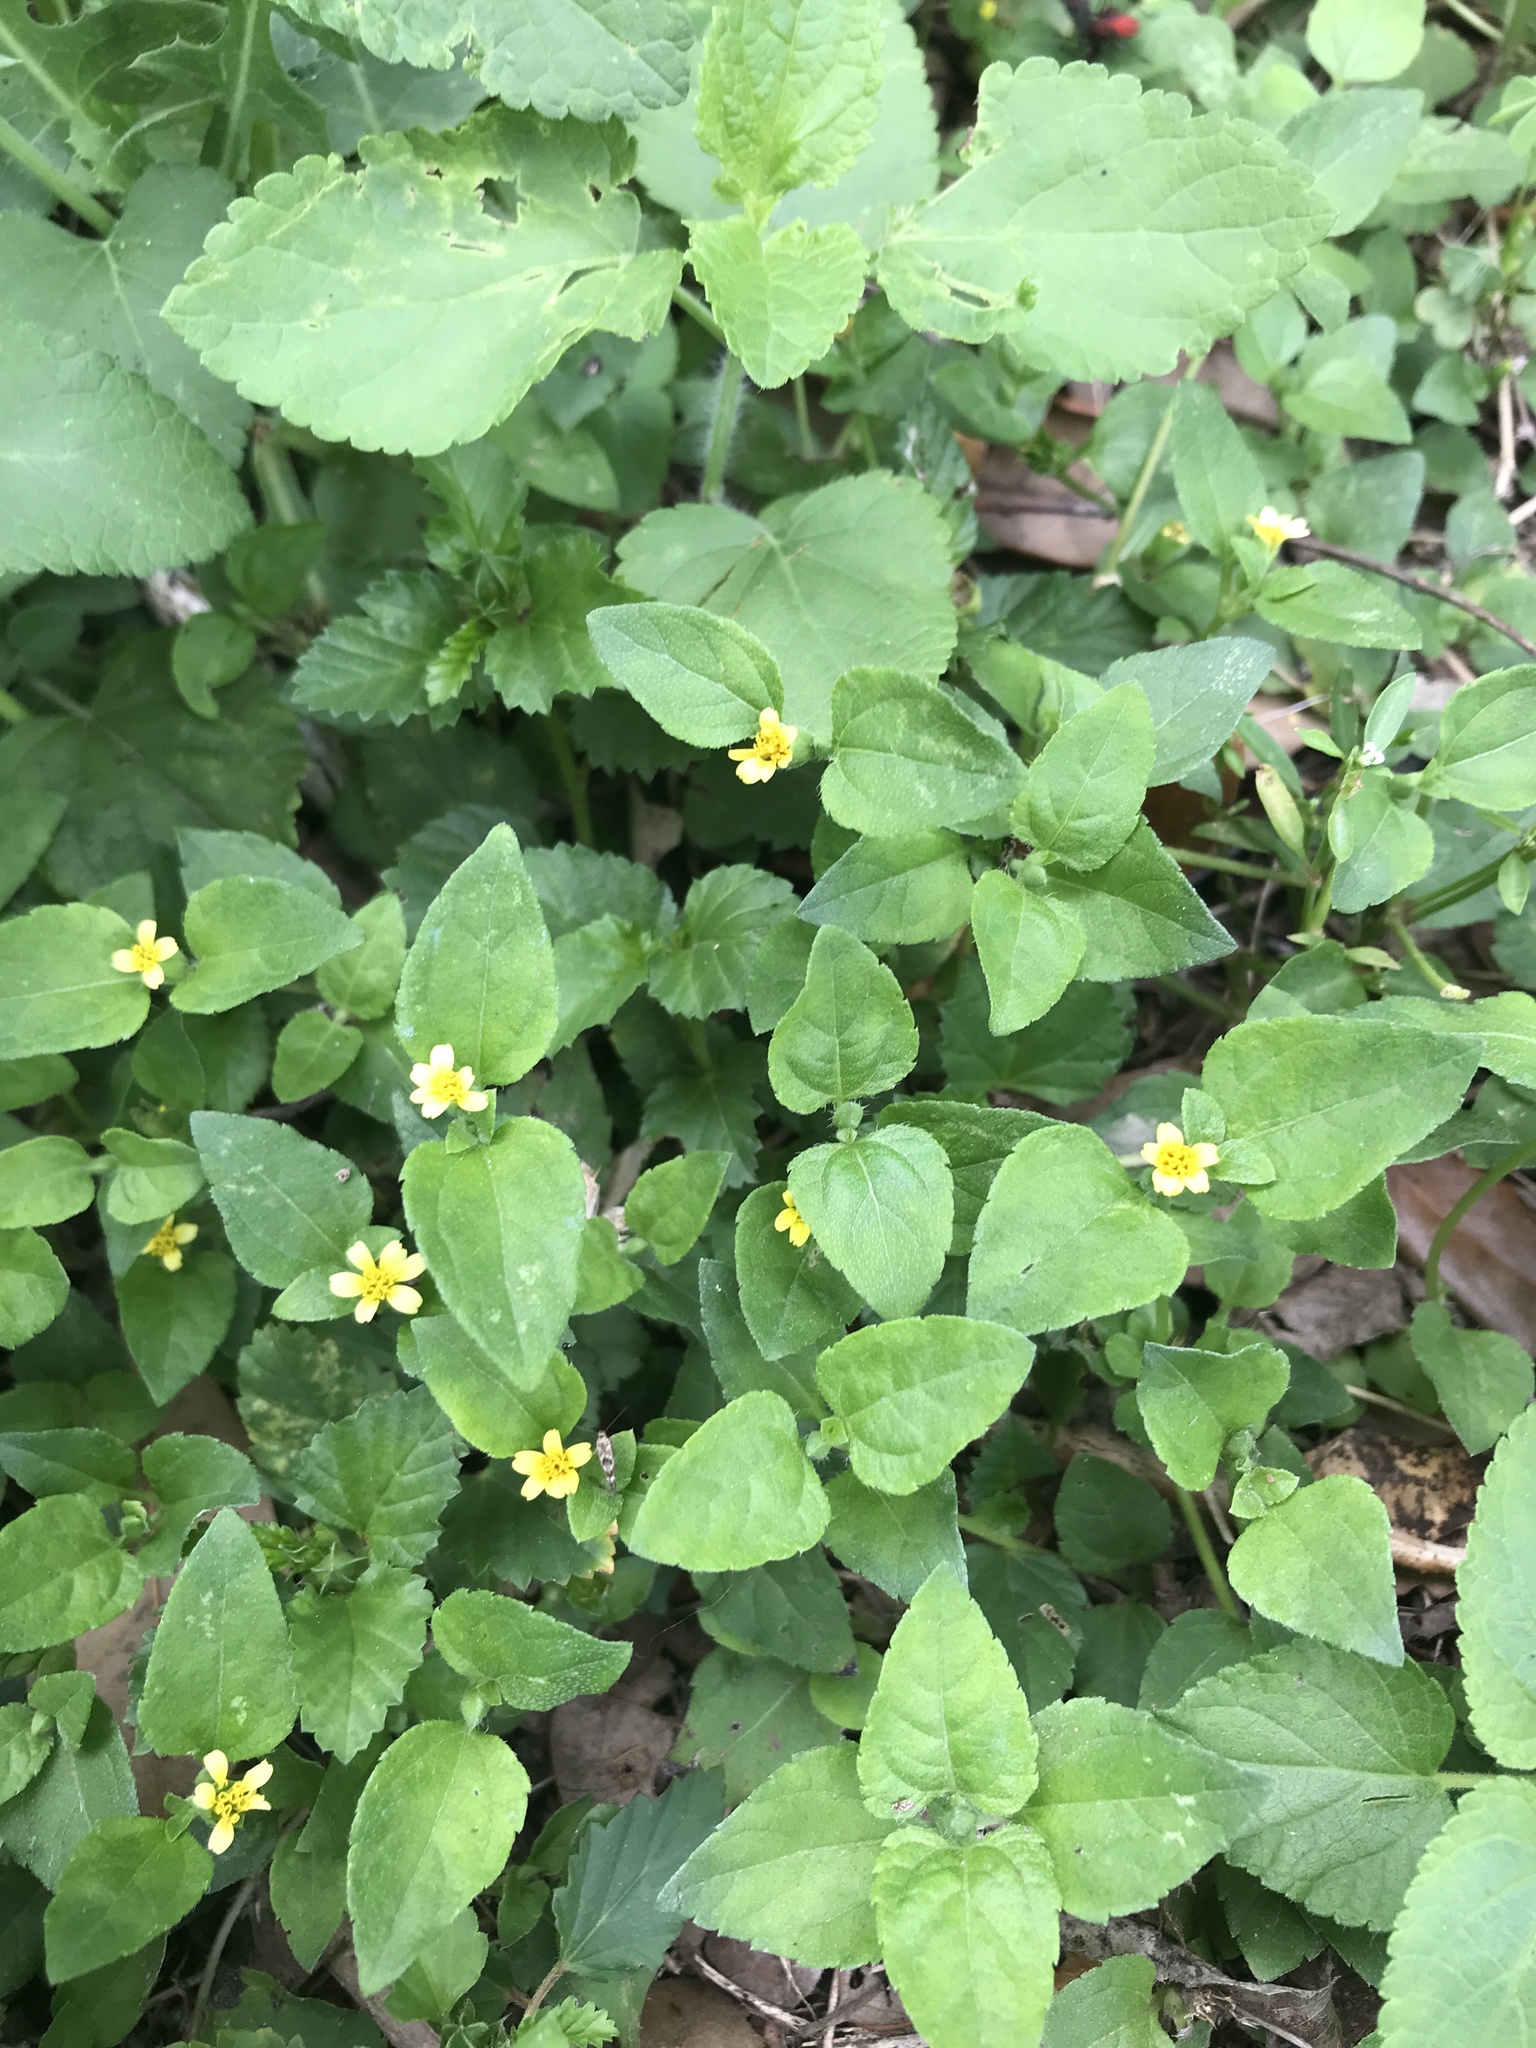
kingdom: Plantae
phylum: Tracheophyta
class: Magnoliopsida
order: Asterales
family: Asteraceae
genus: Calyptocarpus
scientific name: Calyptocarpus vialis
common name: Straggler daisy
